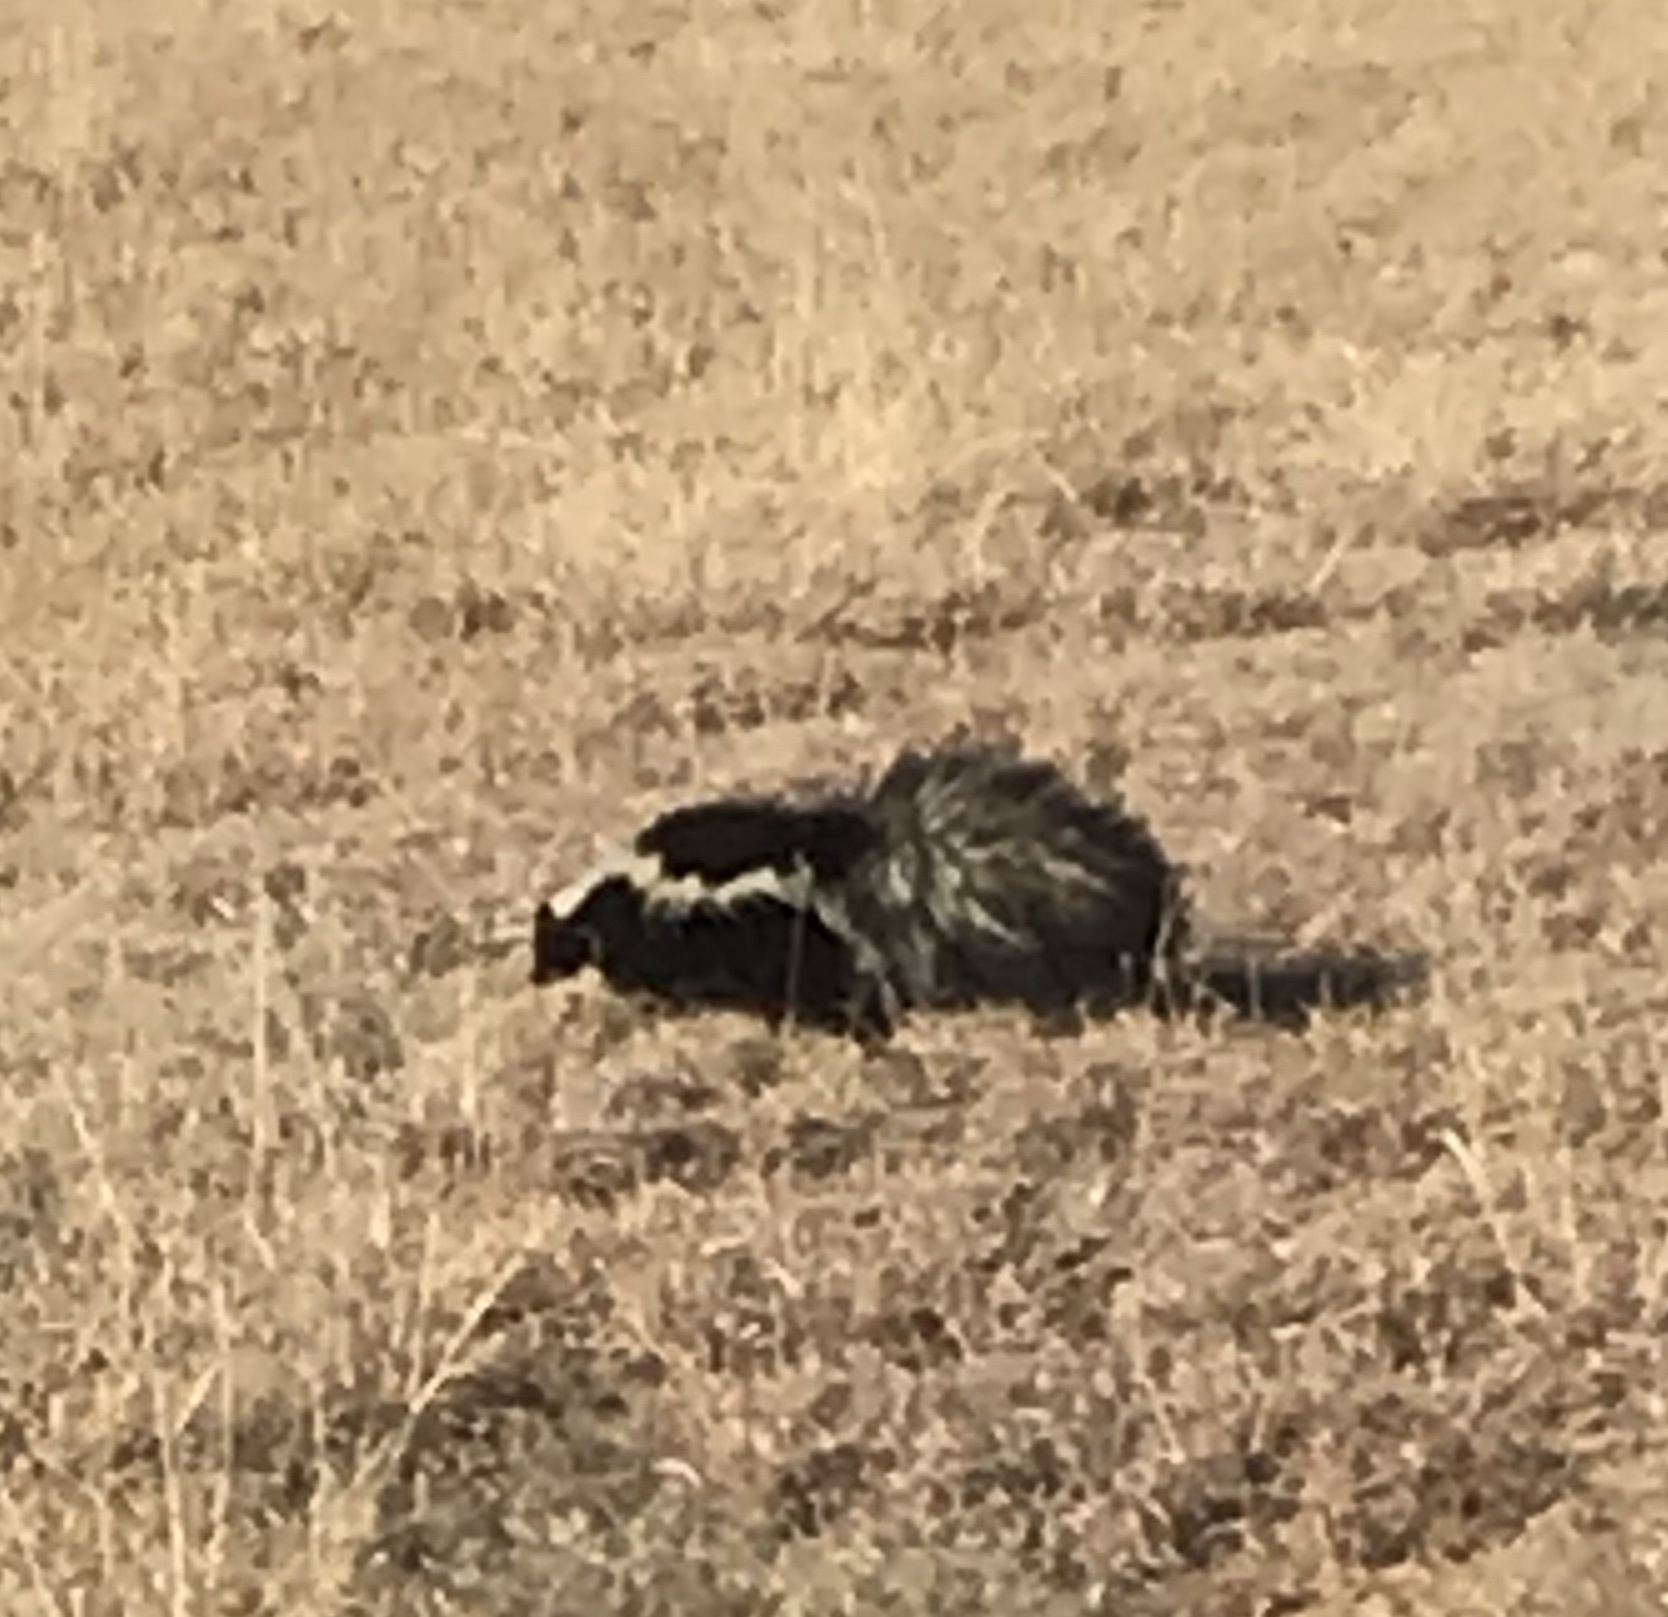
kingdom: Animalia
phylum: Chordata
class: Mammalia
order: Carnivora
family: Mephitidae
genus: Mephitis
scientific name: Mephitis mephitis
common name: Striped skunk
